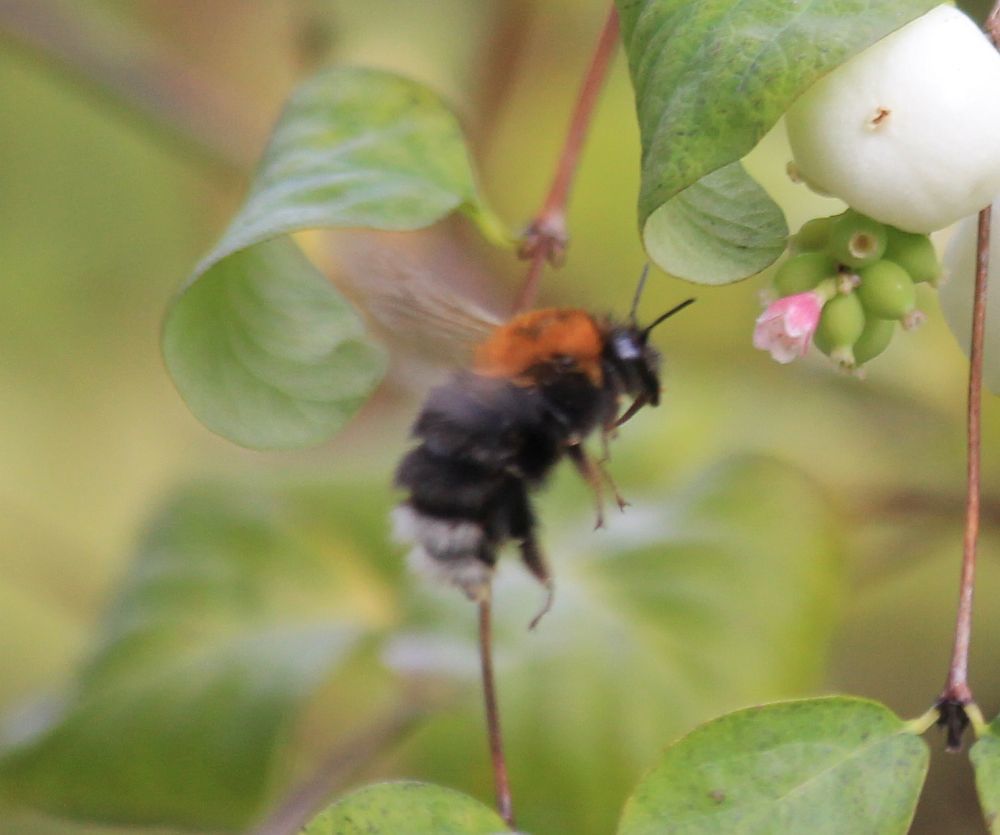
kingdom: Animalia
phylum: Arthropoda
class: Insecta
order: Hymenoptera
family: Apidae
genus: Bombus
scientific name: Bombus hypnorum
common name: New garden bumblebee
